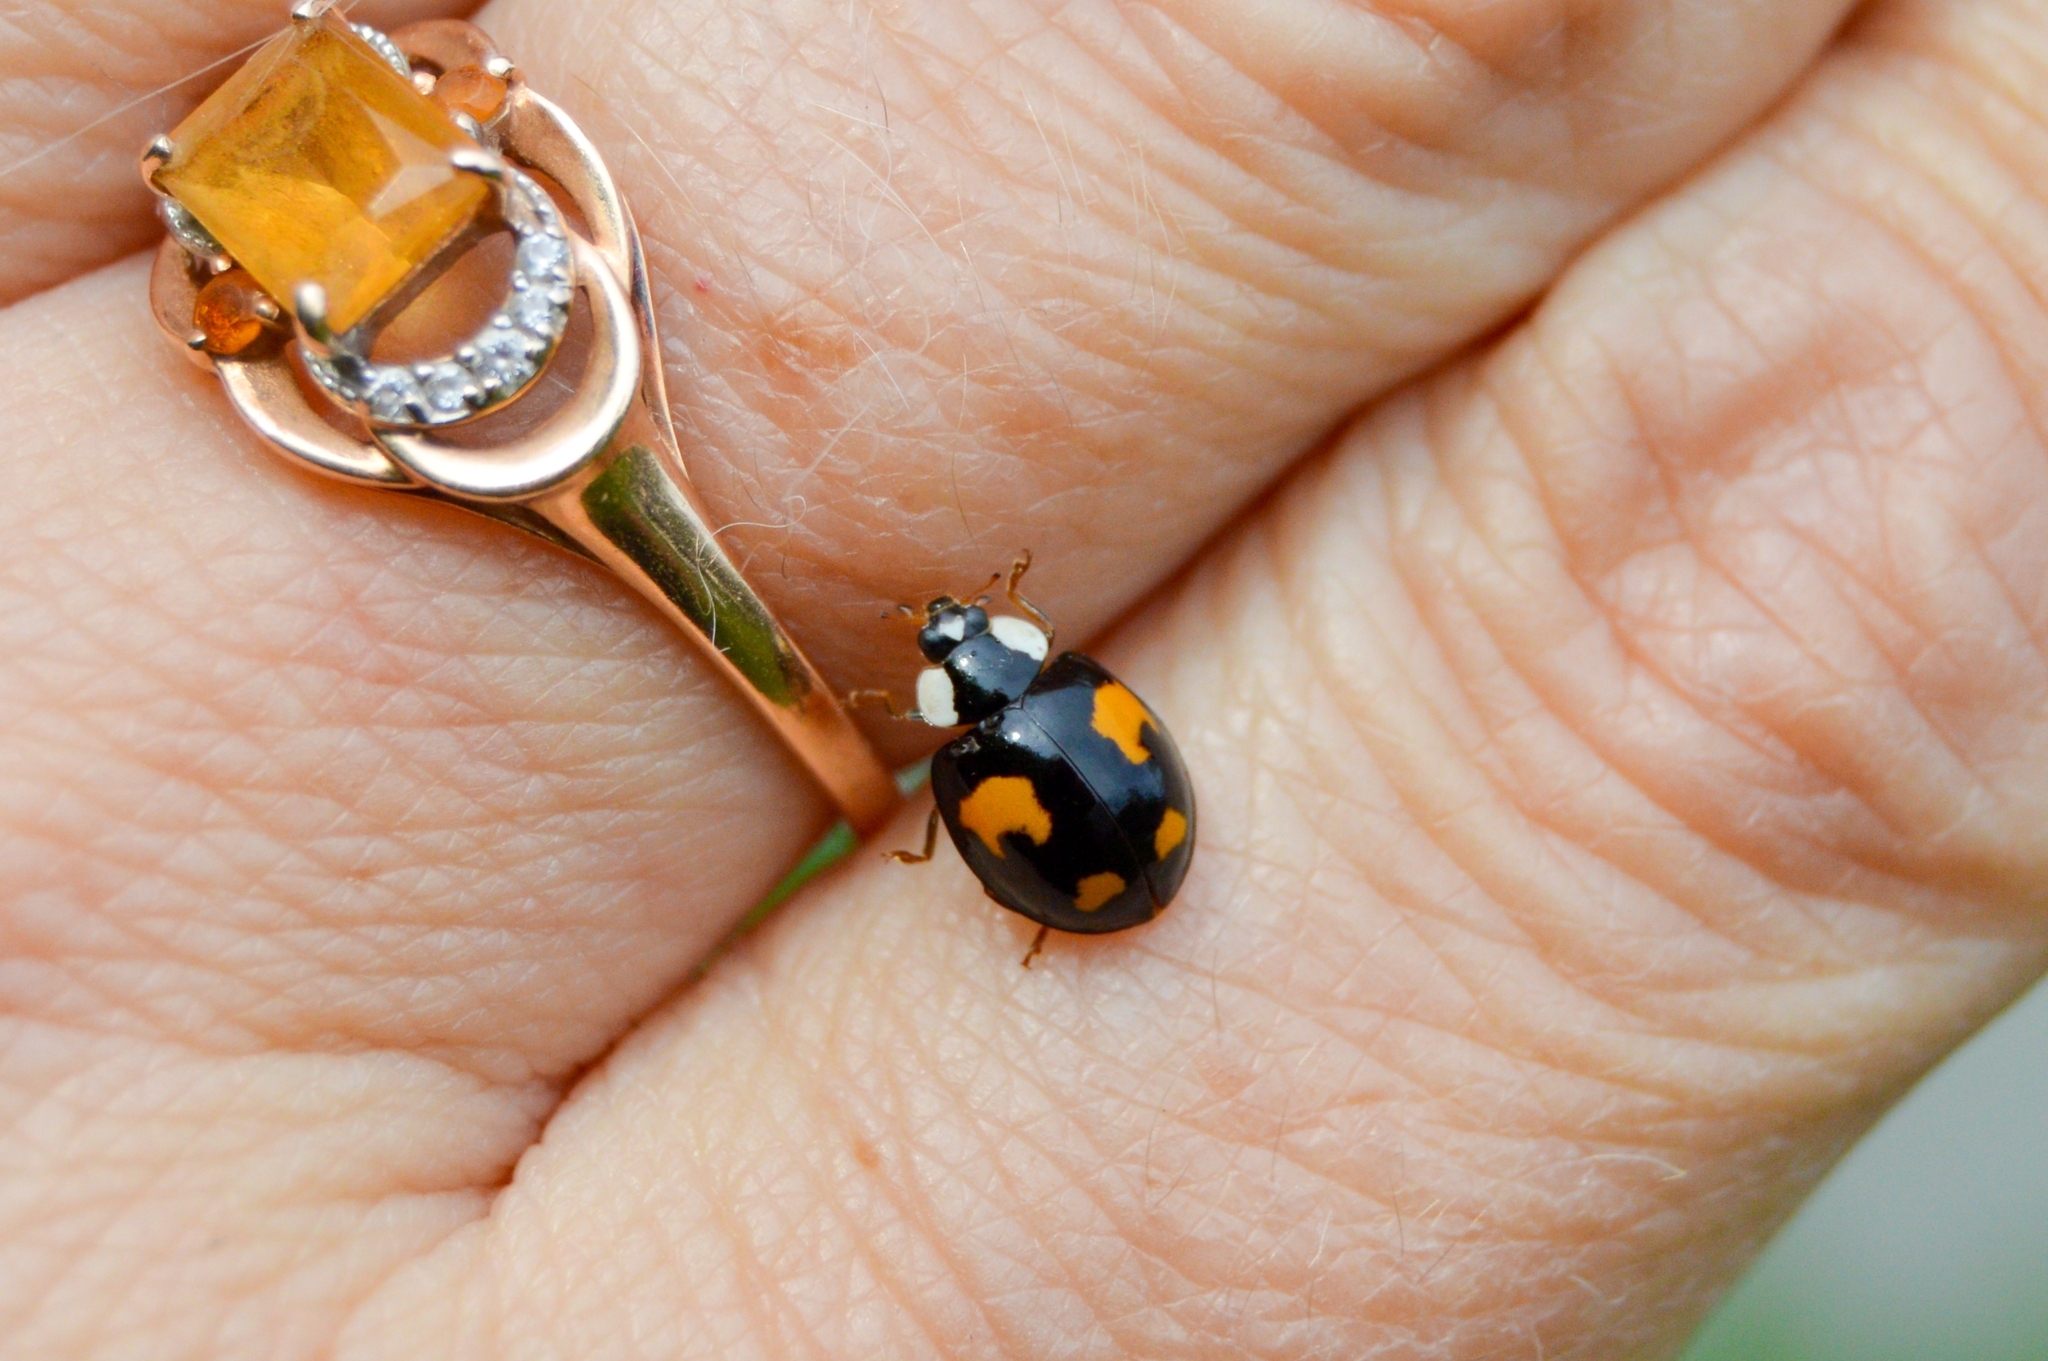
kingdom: Animalia
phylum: Arthropoda
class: Insecta
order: Coleoptera
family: Coccinellidae
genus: Harmonia
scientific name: Harmonia axyridis
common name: Harlequin ladybird
